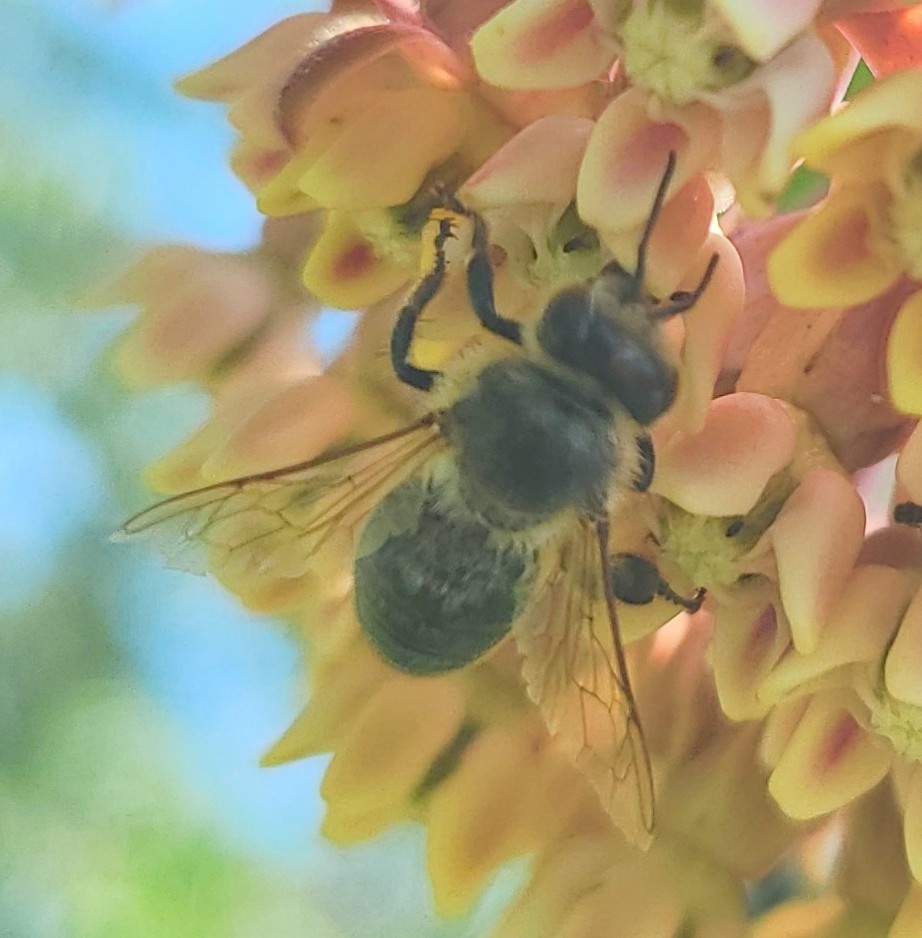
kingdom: Animalia
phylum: Arthropoda
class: Insecta
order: Hymenoptera
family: Apidae
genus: Apis
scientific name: Apis mellifera
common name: Honey bee
